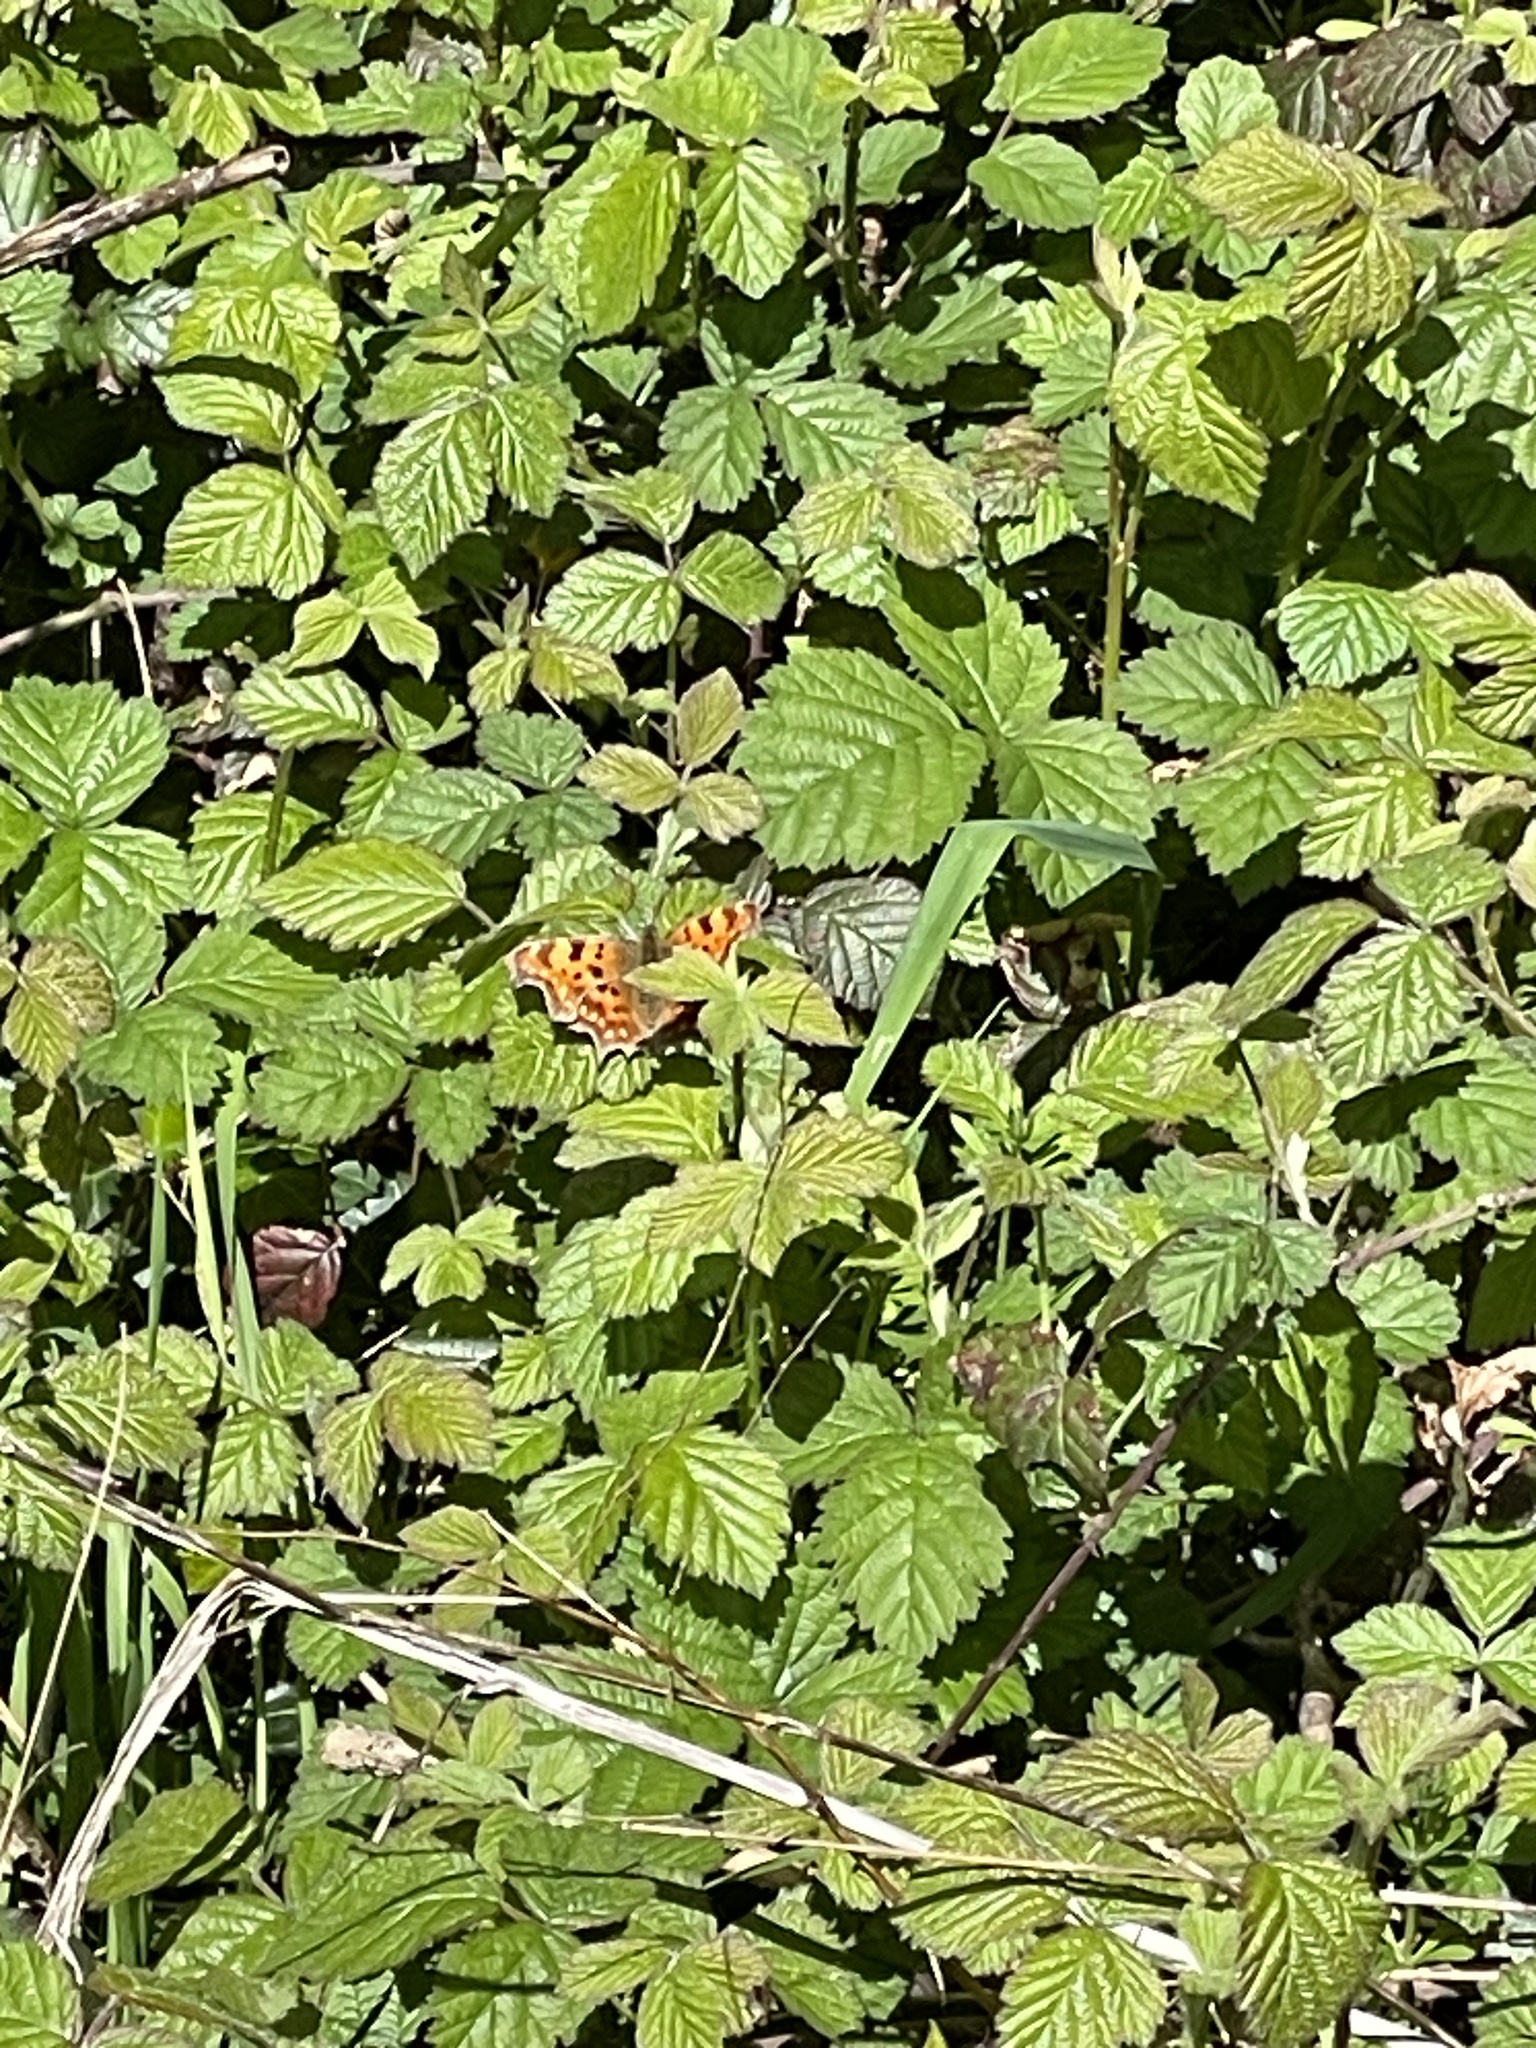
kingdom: Animalia
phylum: Arthropoda
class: Insecta
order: Lepidoptera
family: Nymphalidae
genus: Polygonia
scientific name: Polygonia c-album
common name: Comma
